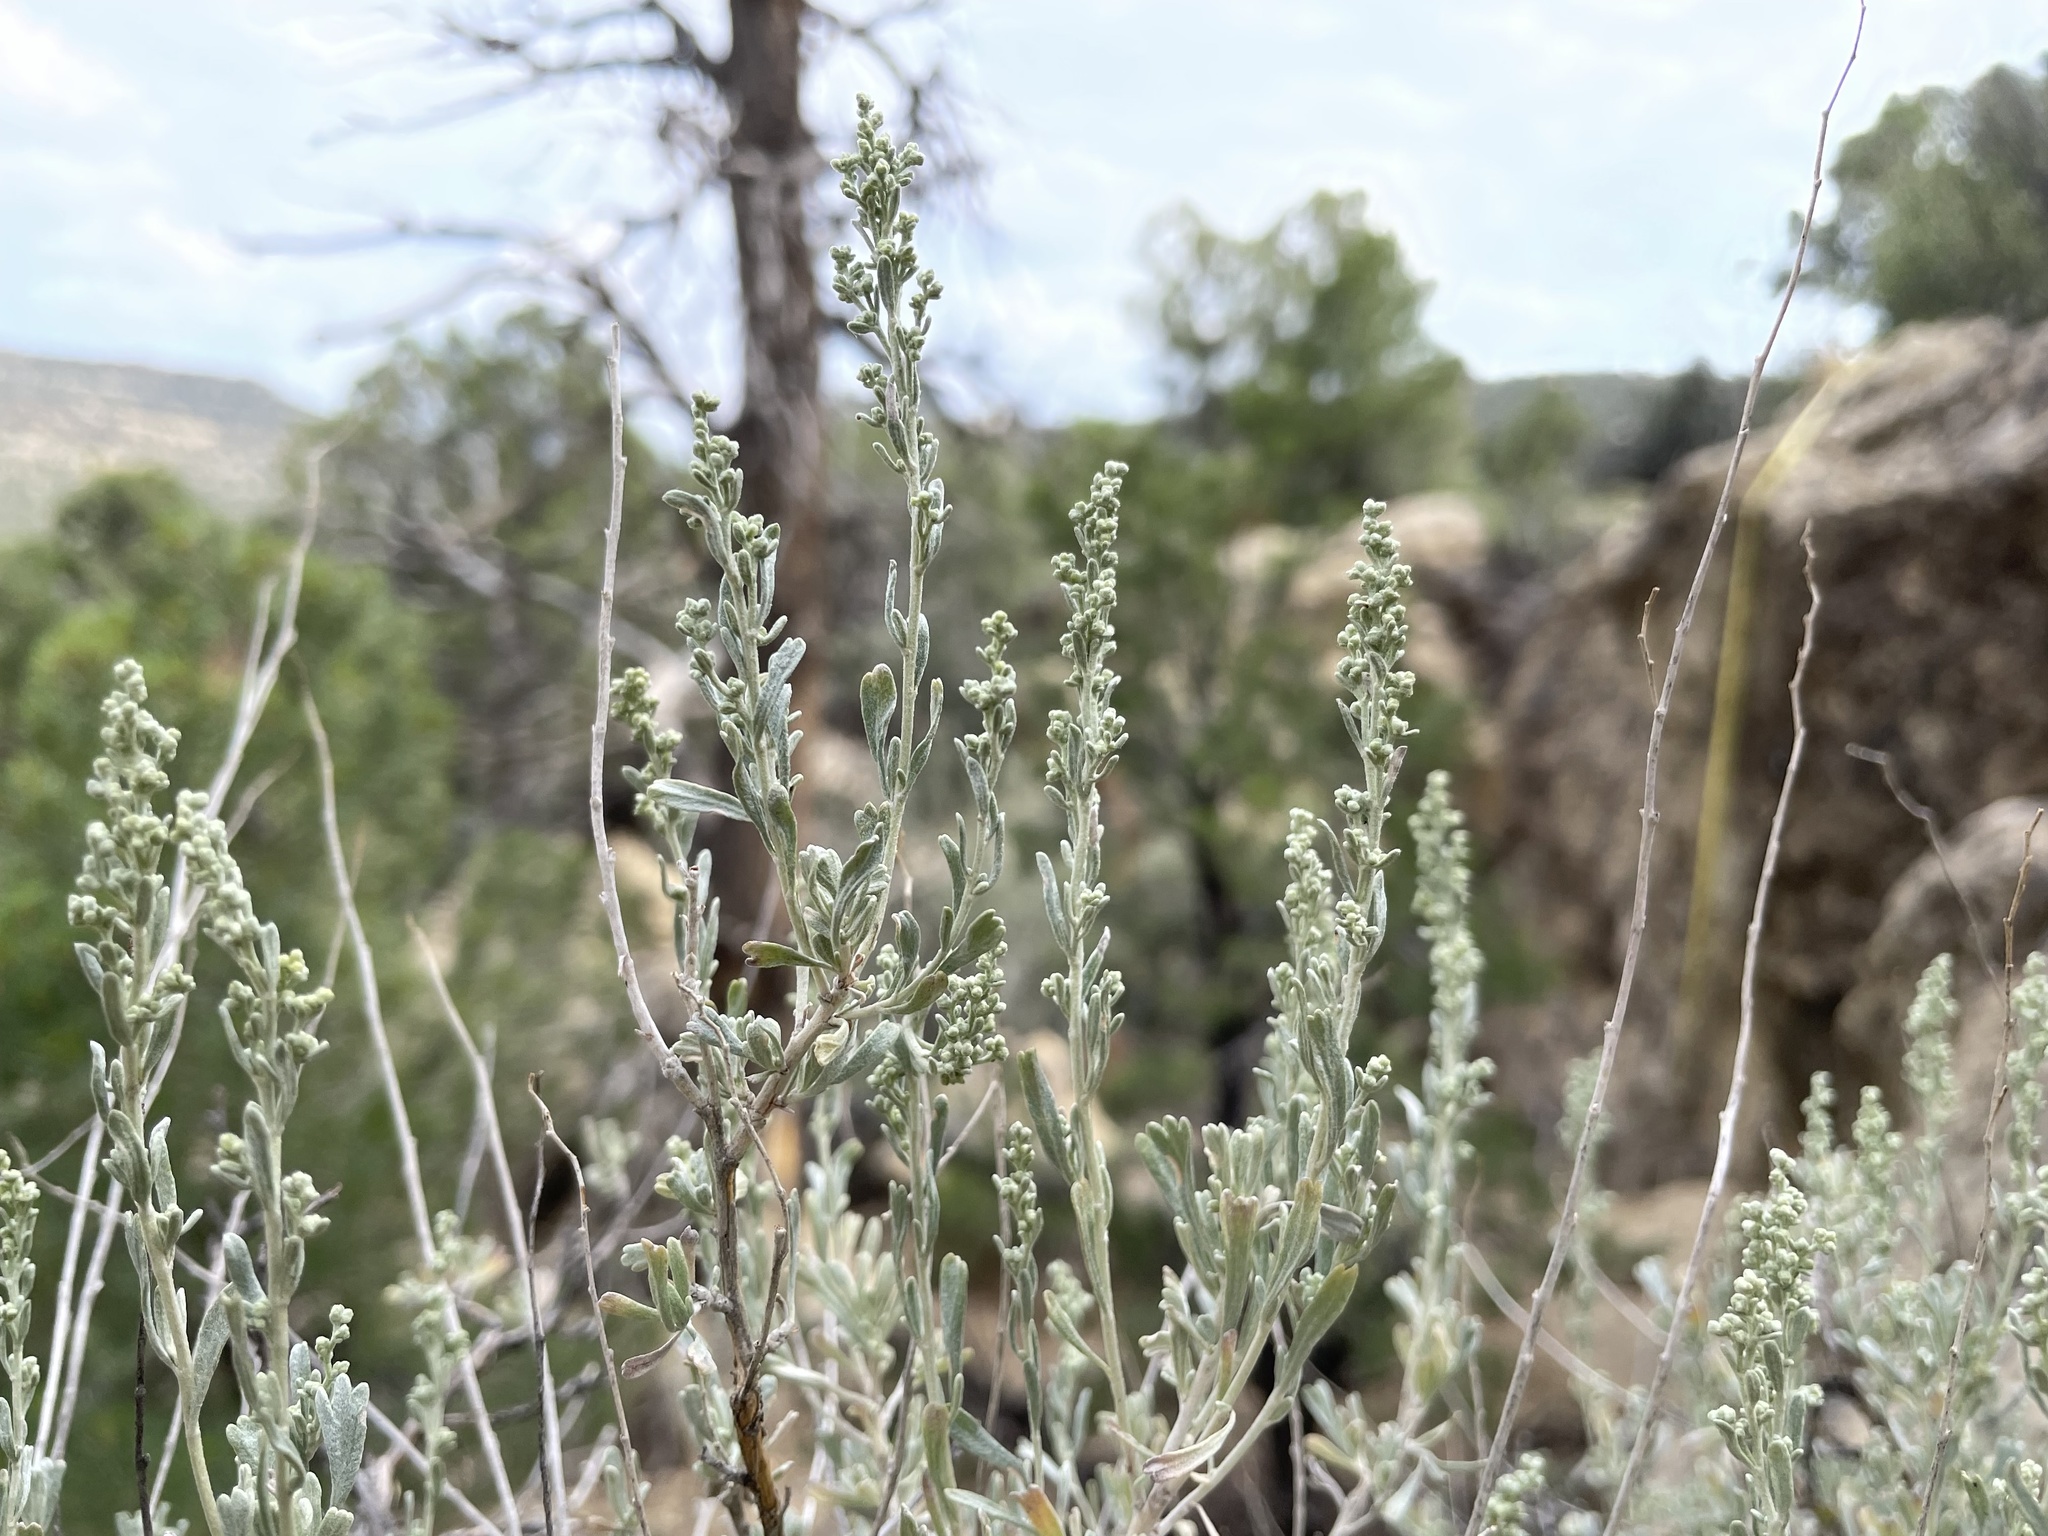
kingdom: Plantae
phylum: Tracheophyta
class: Magnoliopsida
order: Asterales
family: Asteraceae
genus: Artemisia
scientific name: Artemisia tridentata
